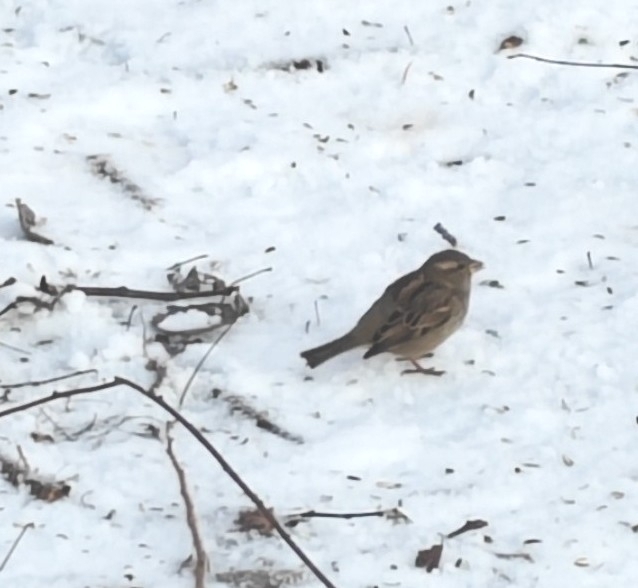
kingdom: Animalia
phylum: Chordata
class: Aves
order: Passeriformes
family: Passeridae
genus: Passer
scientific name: Passer domesticus
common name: House sparrow
